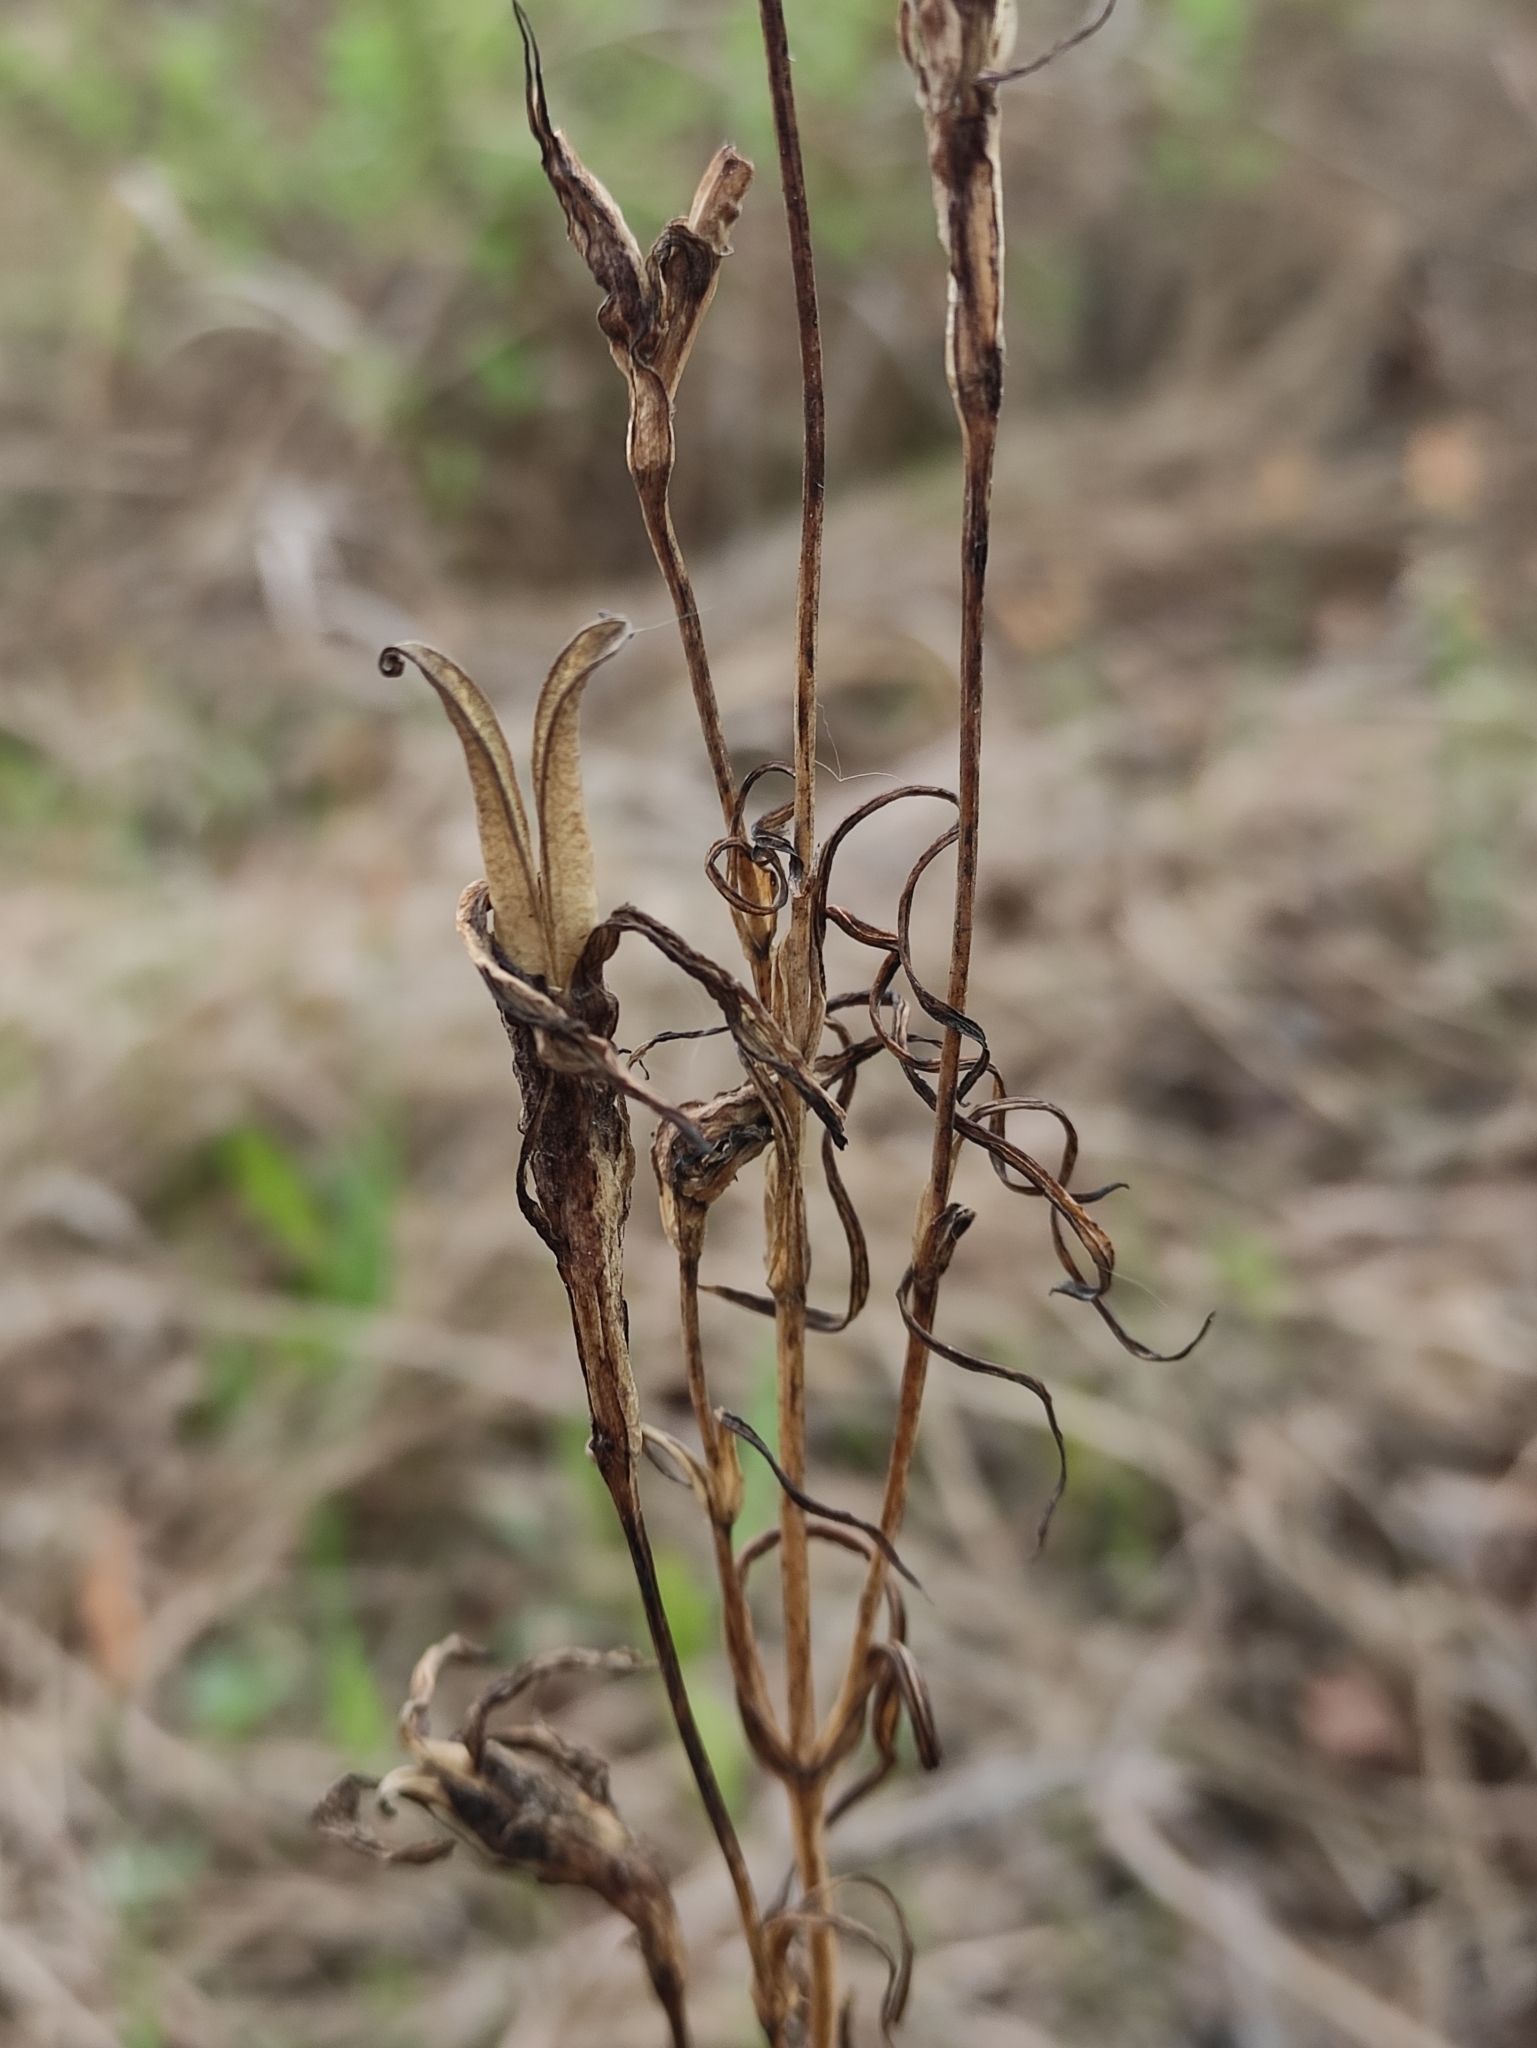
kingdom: Plantae
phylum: Tracheophyta
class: Magnoliopsida
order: Gentianales
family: Gentianaceae
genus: Gentianopsis
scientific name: Gentianopsis barbata
